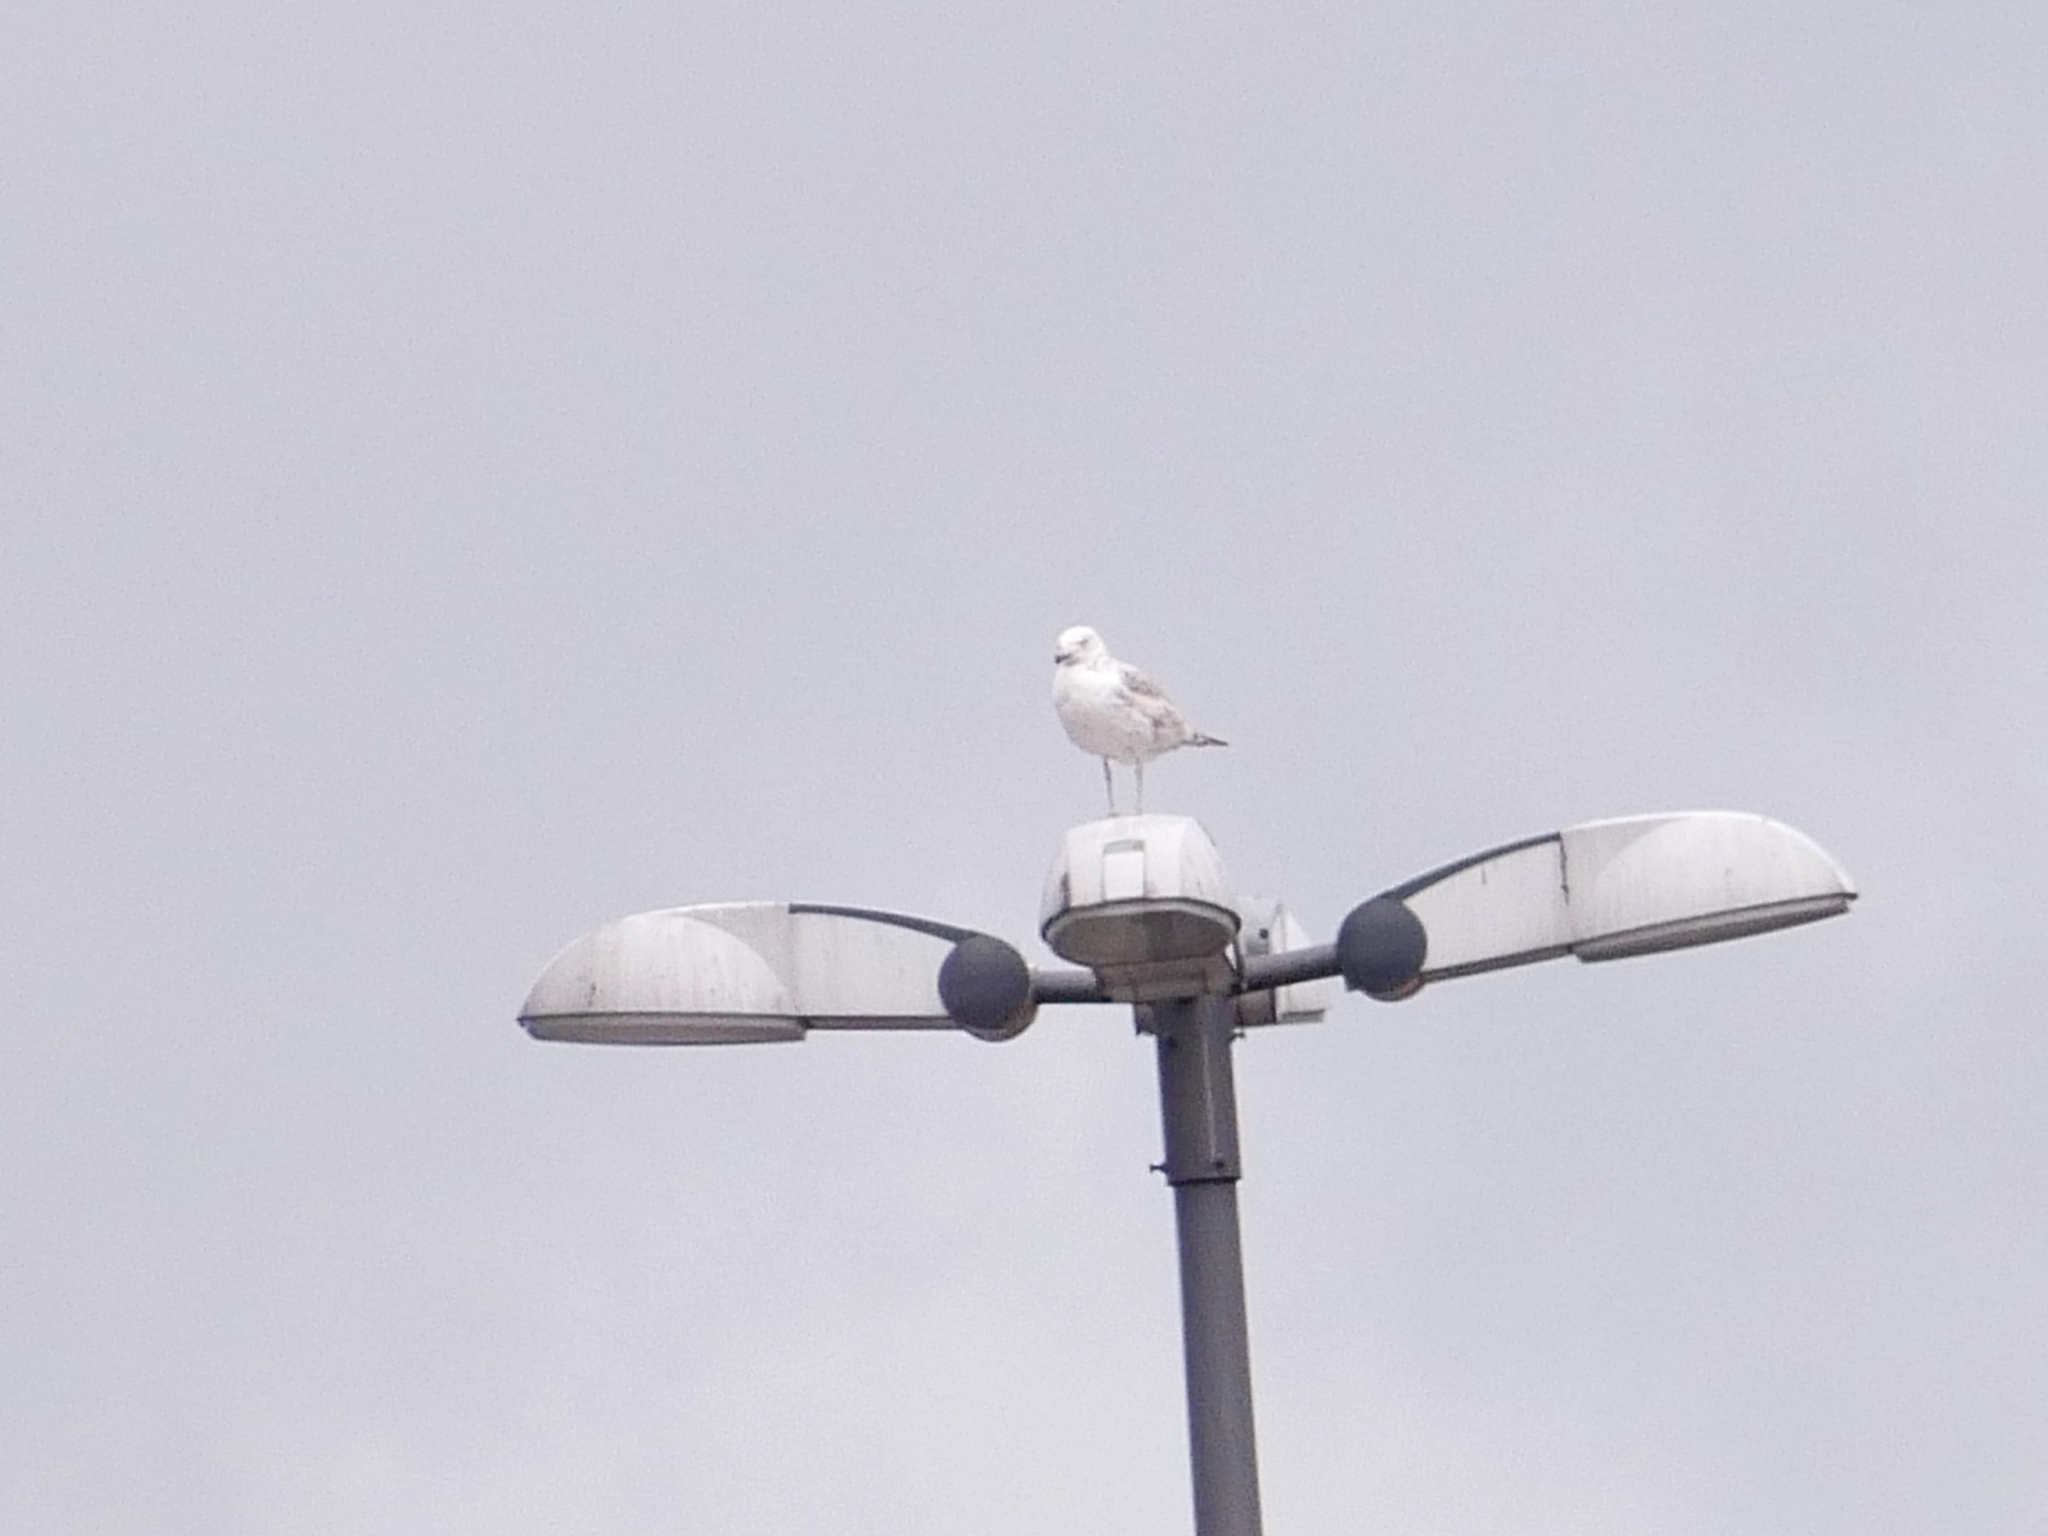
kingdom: Animalia
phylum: Chordata
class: Aves
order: Charadriiformes
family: Laridae
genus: Larus
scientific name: Larus argentatus
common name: Herring gull
